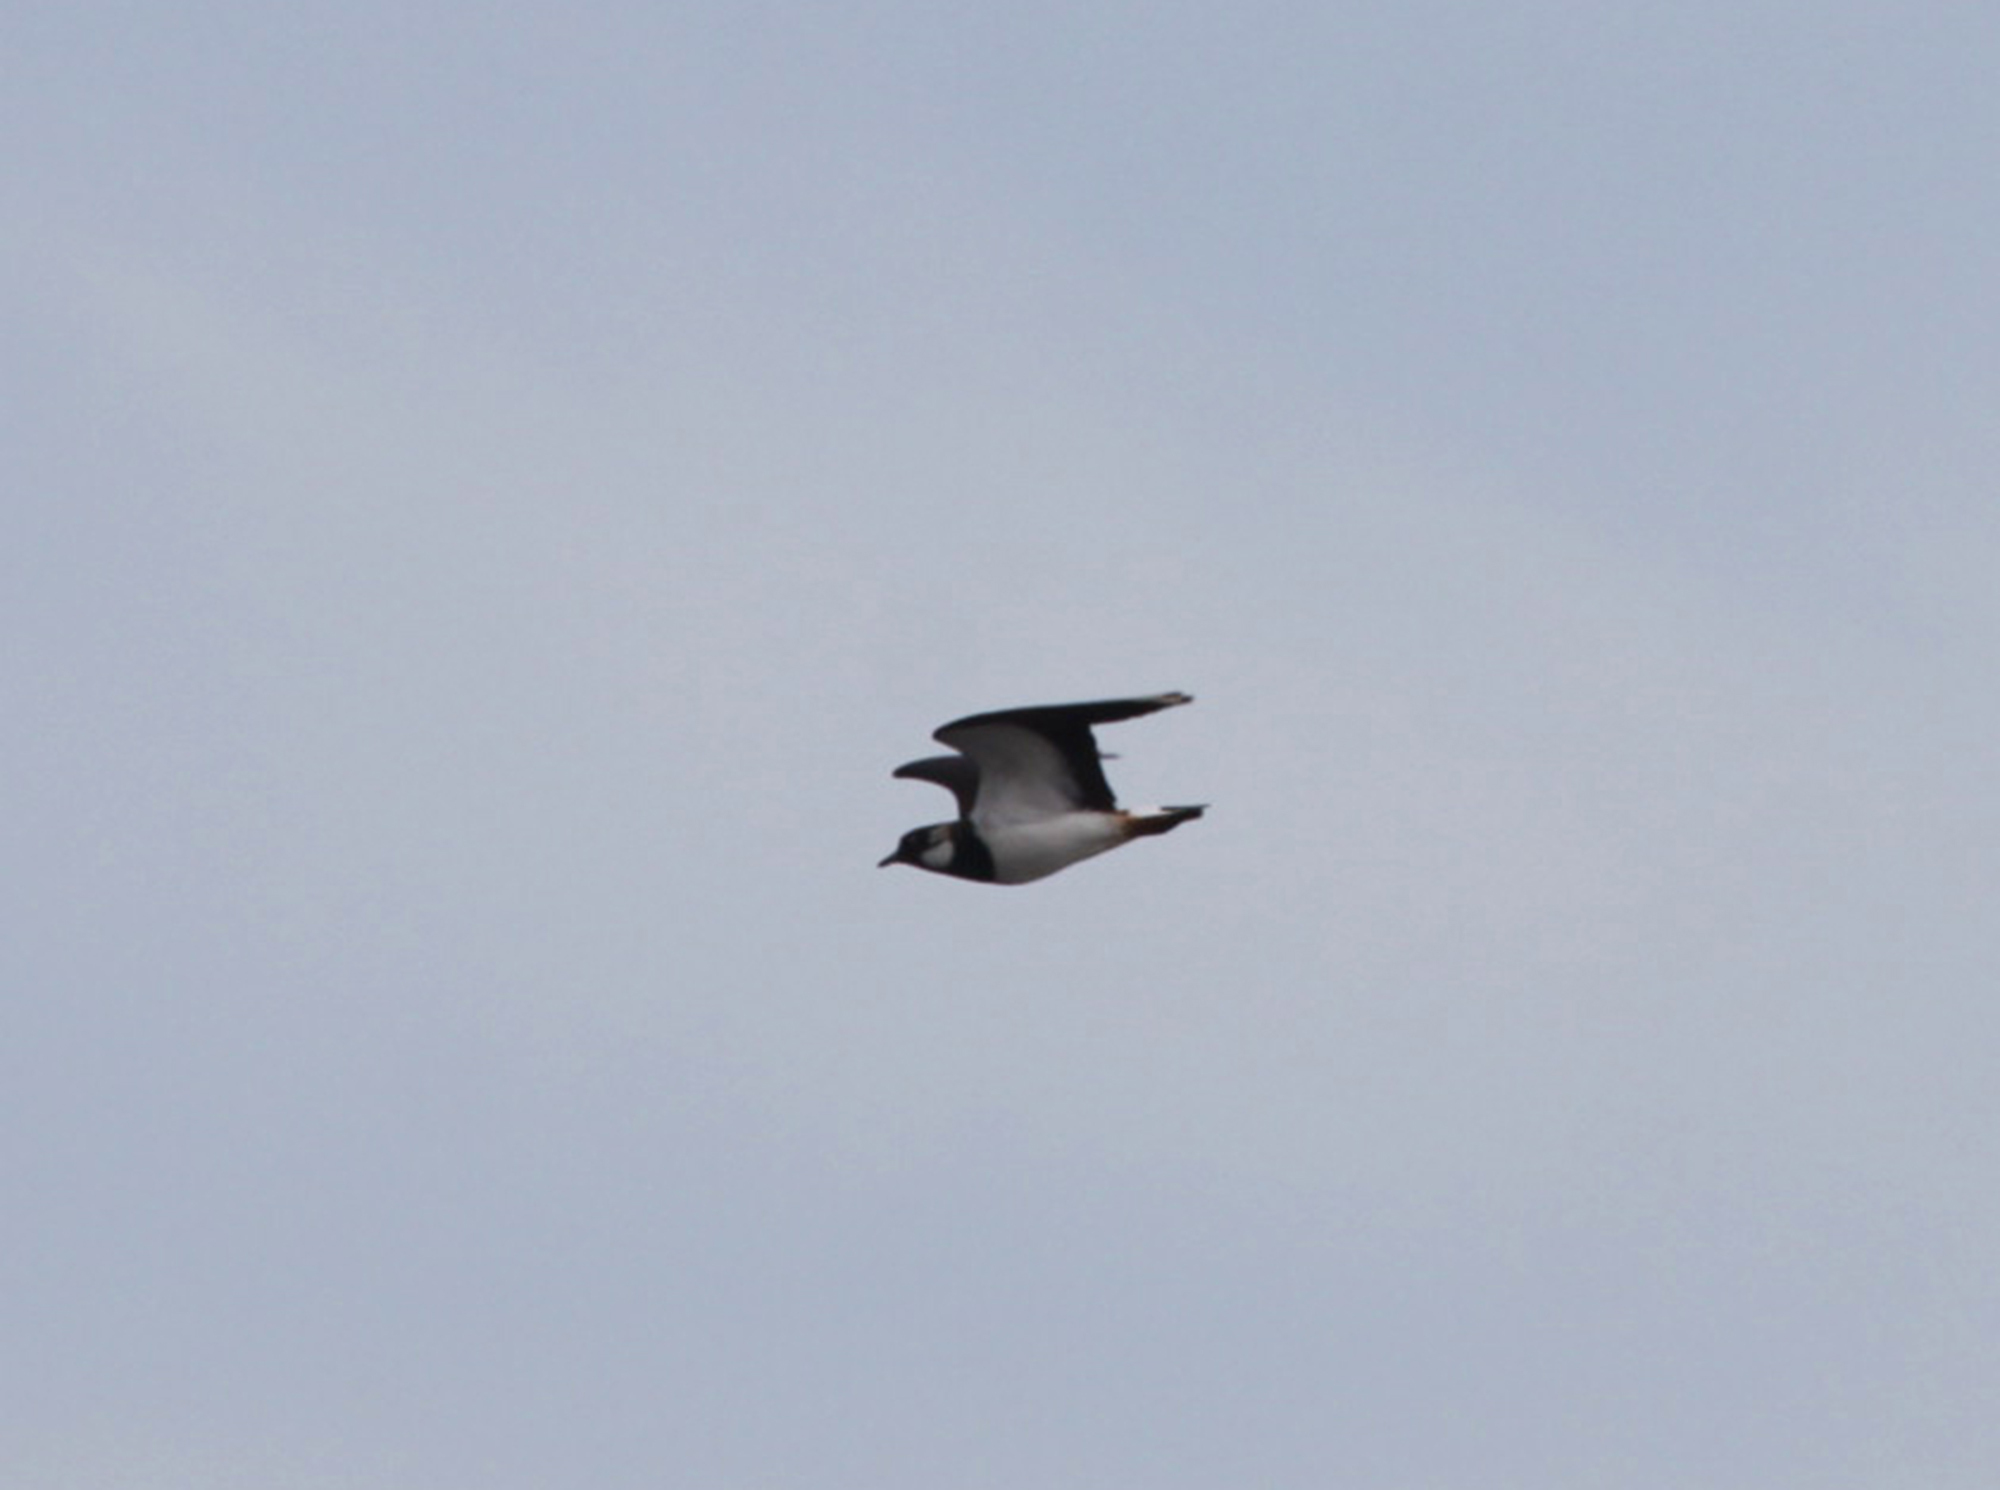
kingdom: Animalia
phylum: Chordata
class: Aves
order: Charadriiformes
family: Charadriidae
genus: Vanellus
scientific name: Vanellus vanellus
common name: Northern lapwing
